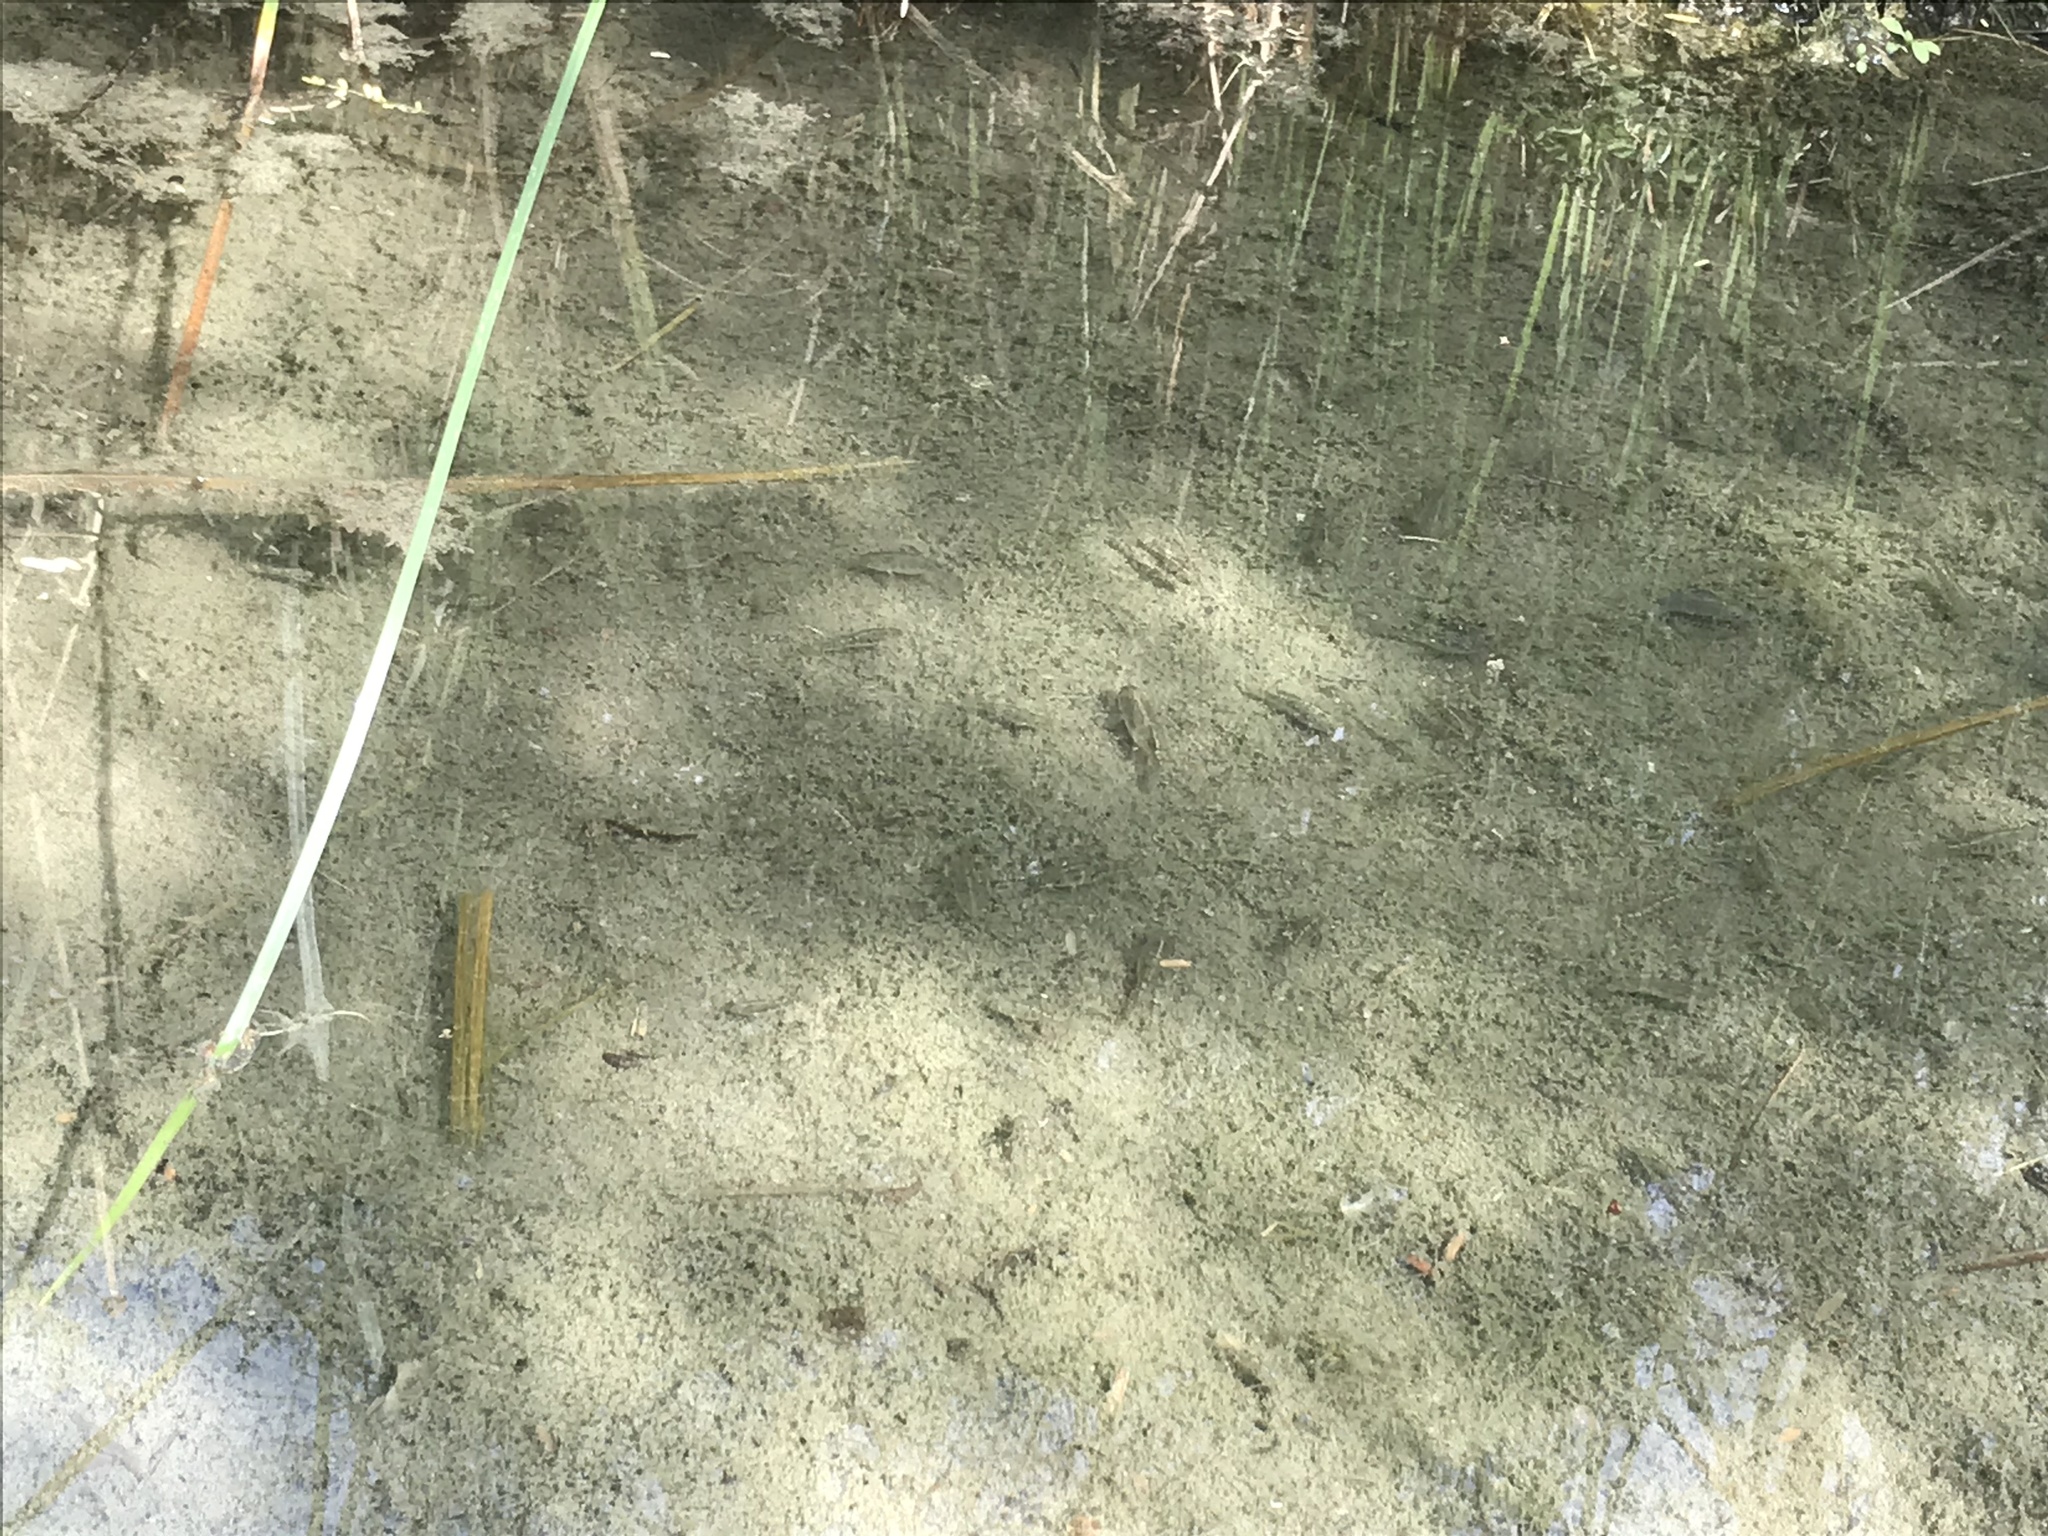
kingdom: Animalia
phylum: Chordata
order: Cyprinodontiformes
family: Cyprinodontidae
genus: Cyprinodon
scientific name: Cyprinodon eremus
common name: Sonoyta pupfish
